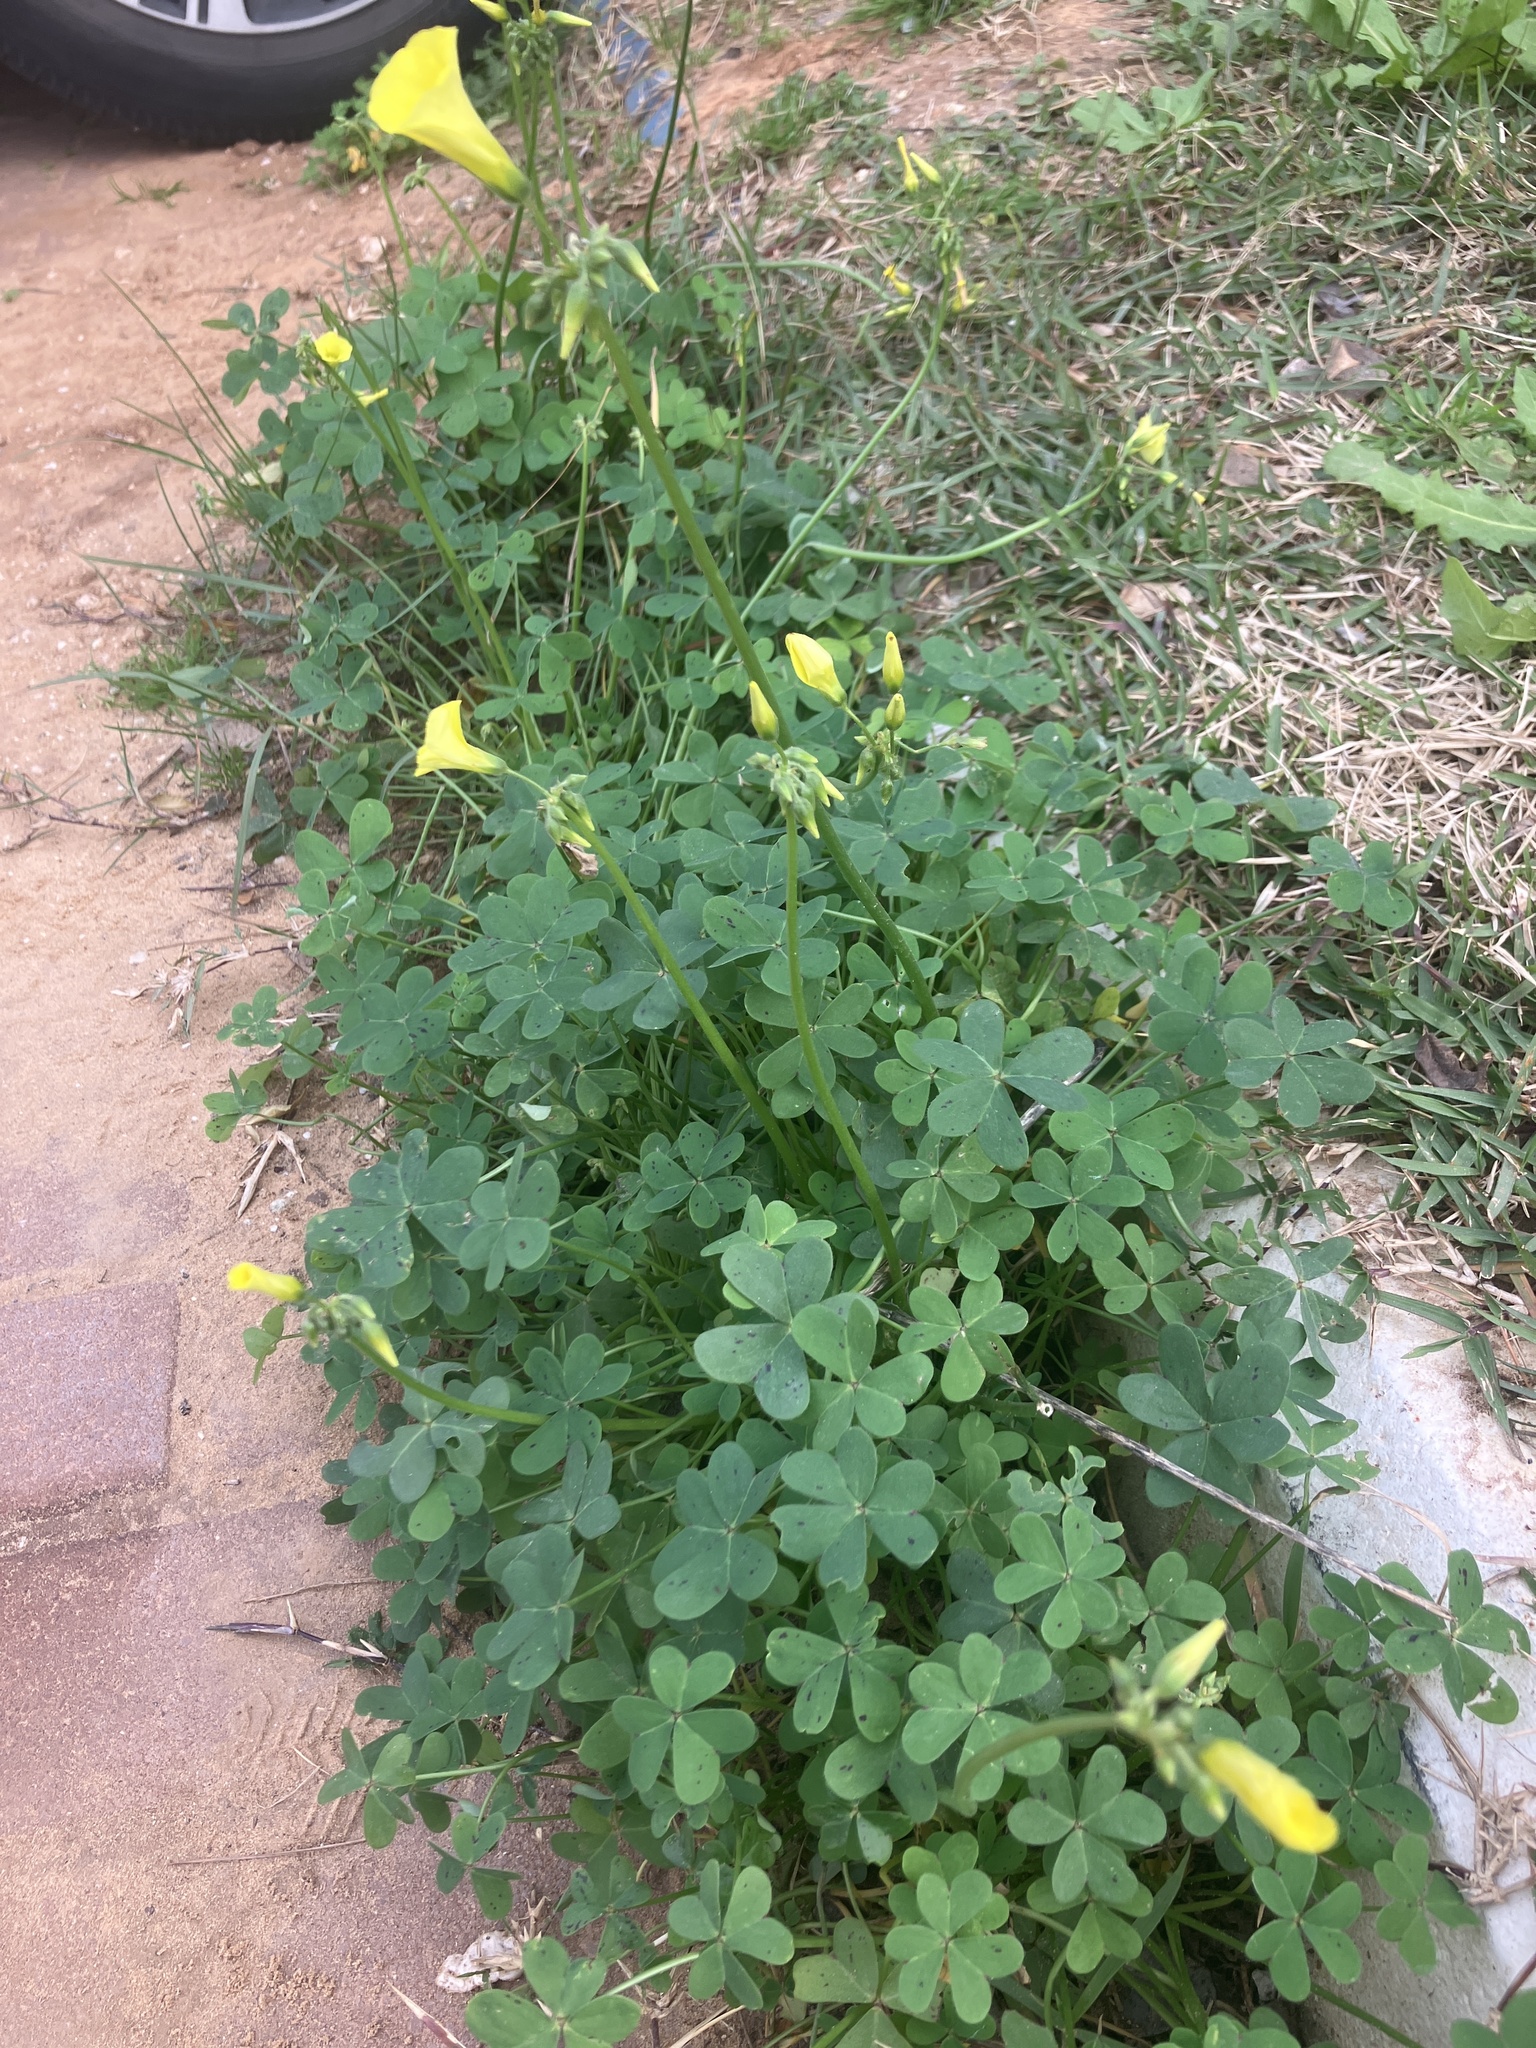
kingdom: Plantae
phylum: Tracheophyta
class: Magnoliopsida
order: Oxalidales
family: Oxalidaceae
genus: Oxalis
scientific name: Oxalis pes-caprae
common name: Bermuda-buttercup
